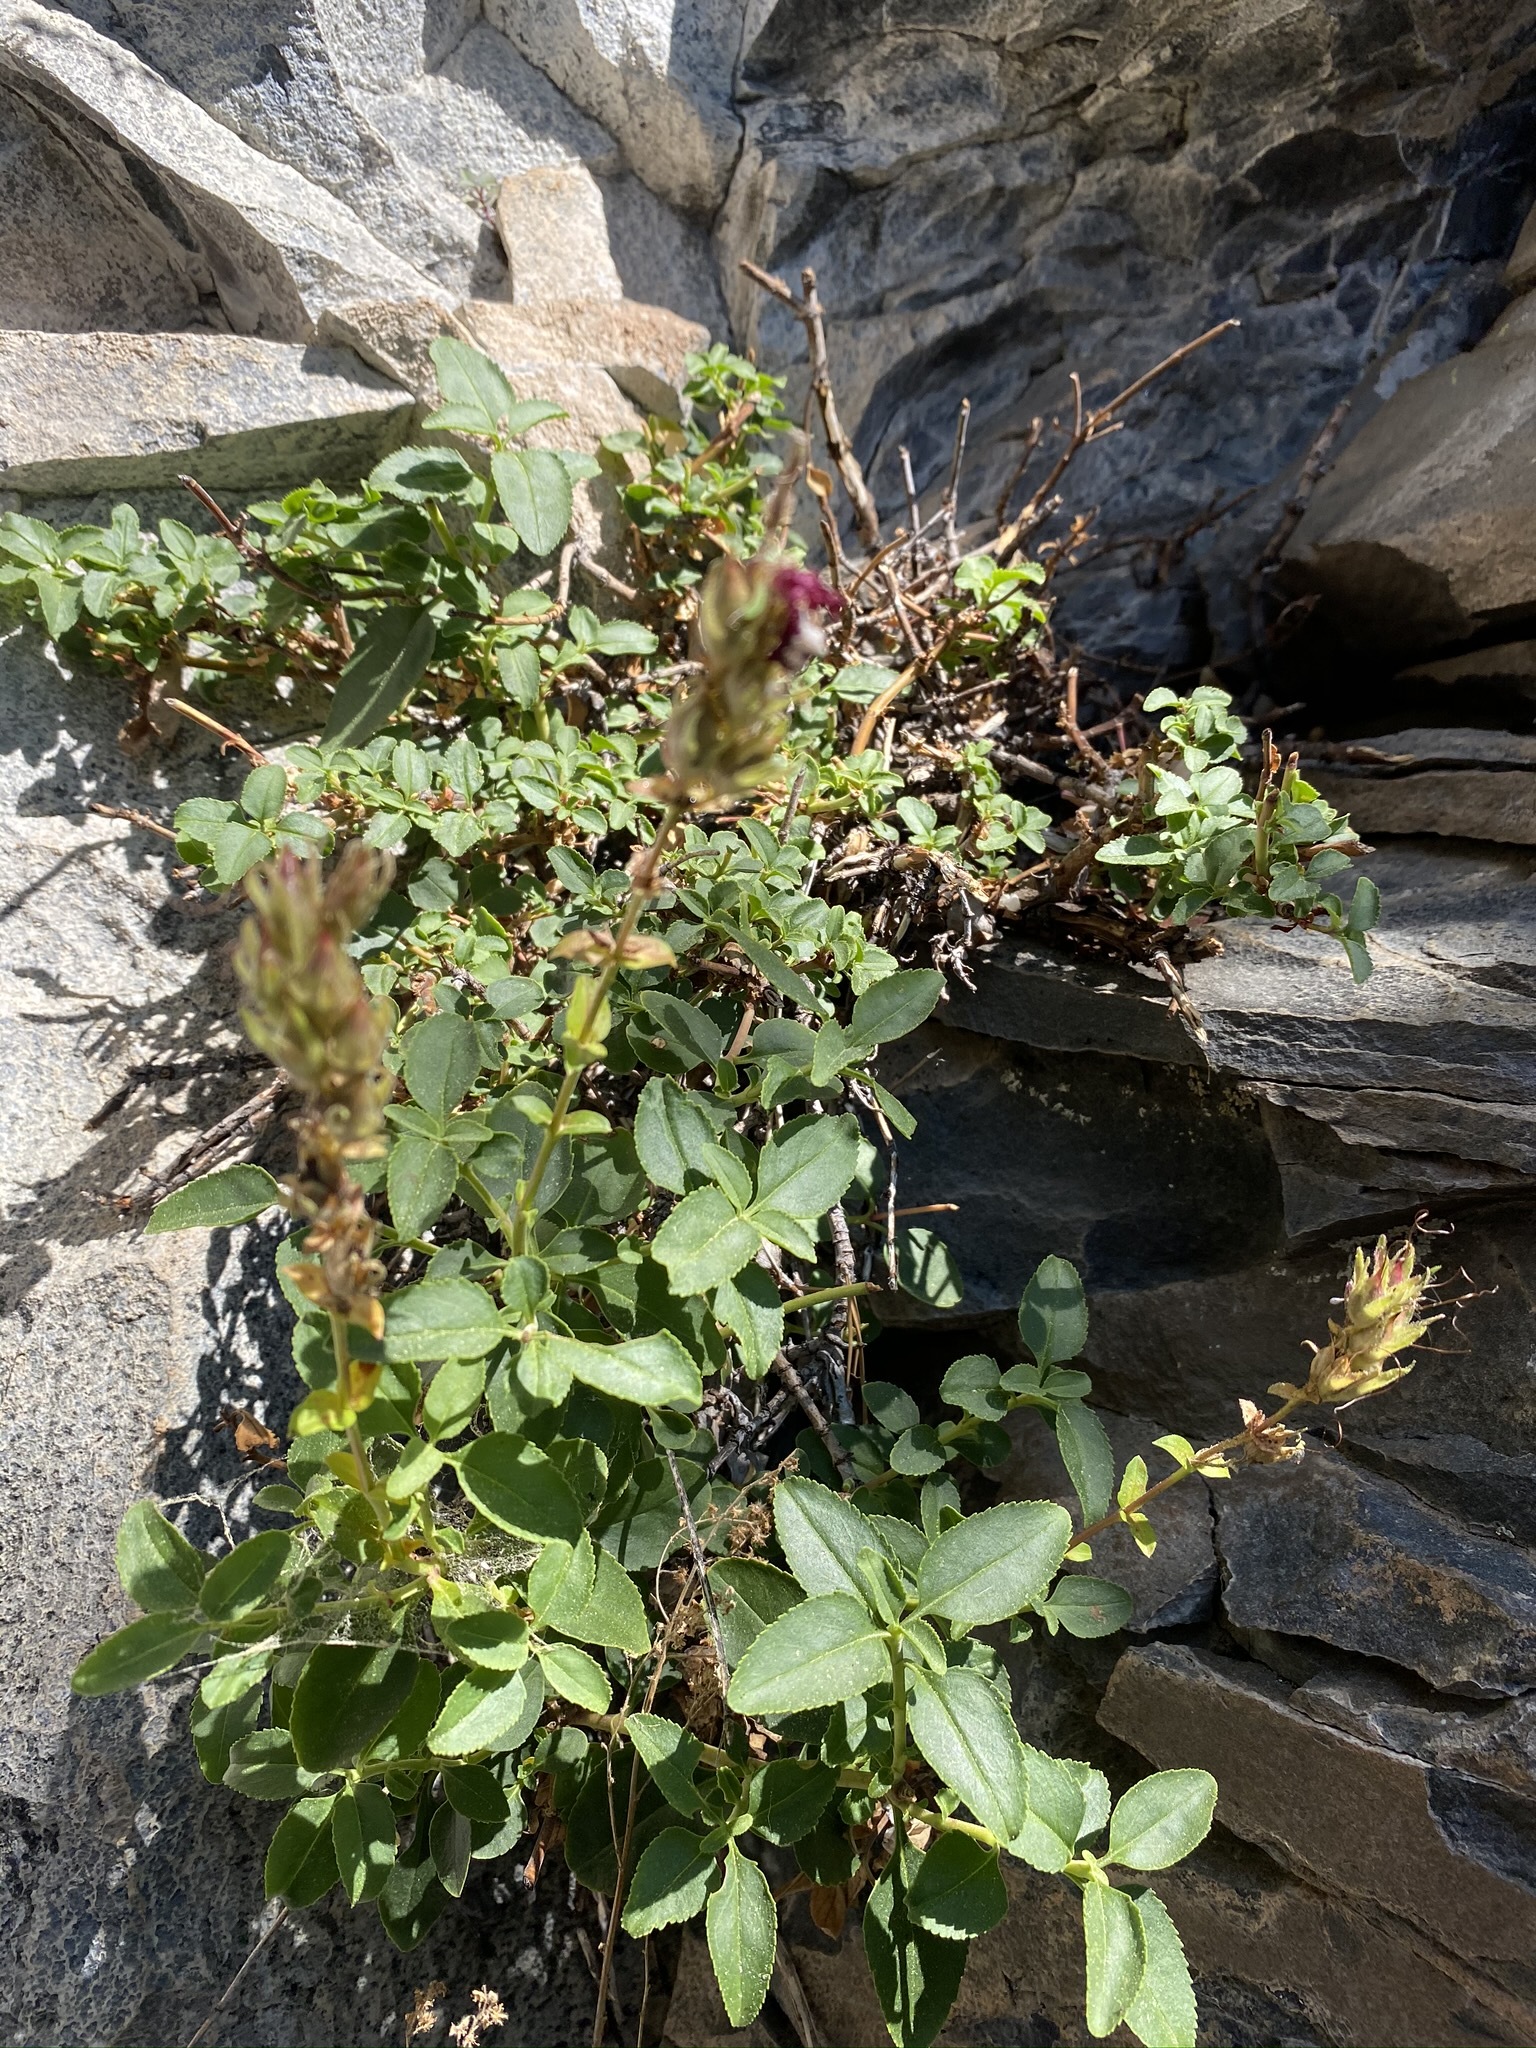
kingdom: Plantae
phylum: Tracheophyta
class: Magnoliopsida
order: Lamiales
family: Plantaginaceae
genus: Penstemon
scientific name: Penstemon newberryi
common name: Mountain-pride
